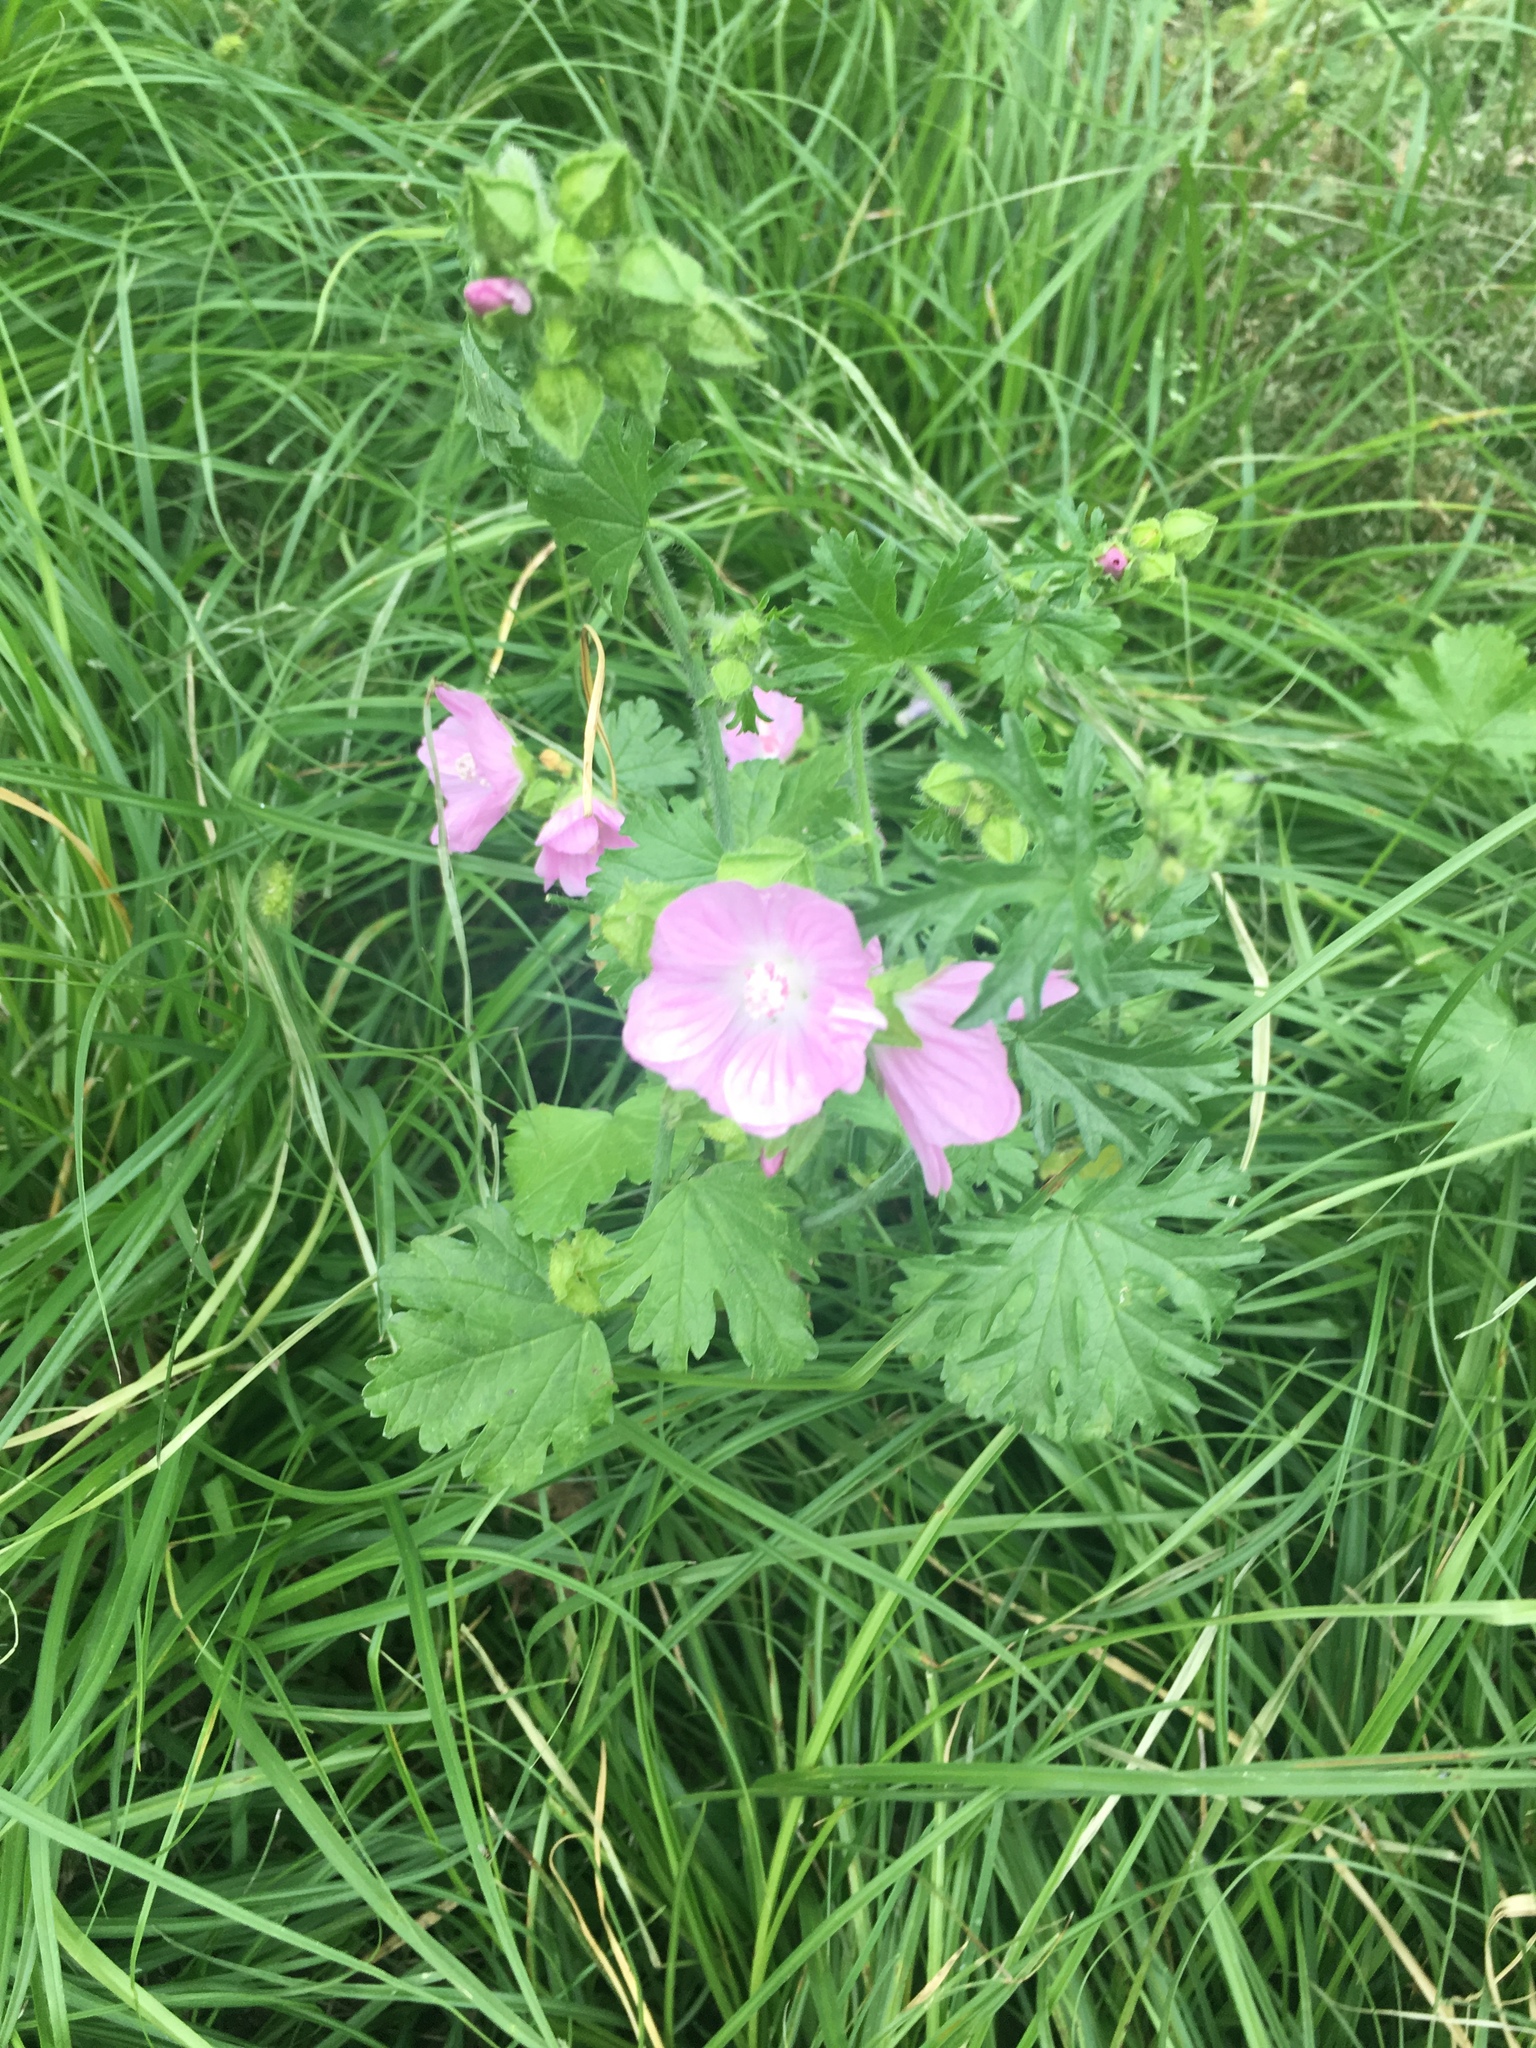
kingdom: Plantae
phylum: Tracheophyta
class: Magnoliopsida
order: Malvales
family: Malvaceae
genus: Malva
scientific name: Malva moschata
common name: Musk mallow
